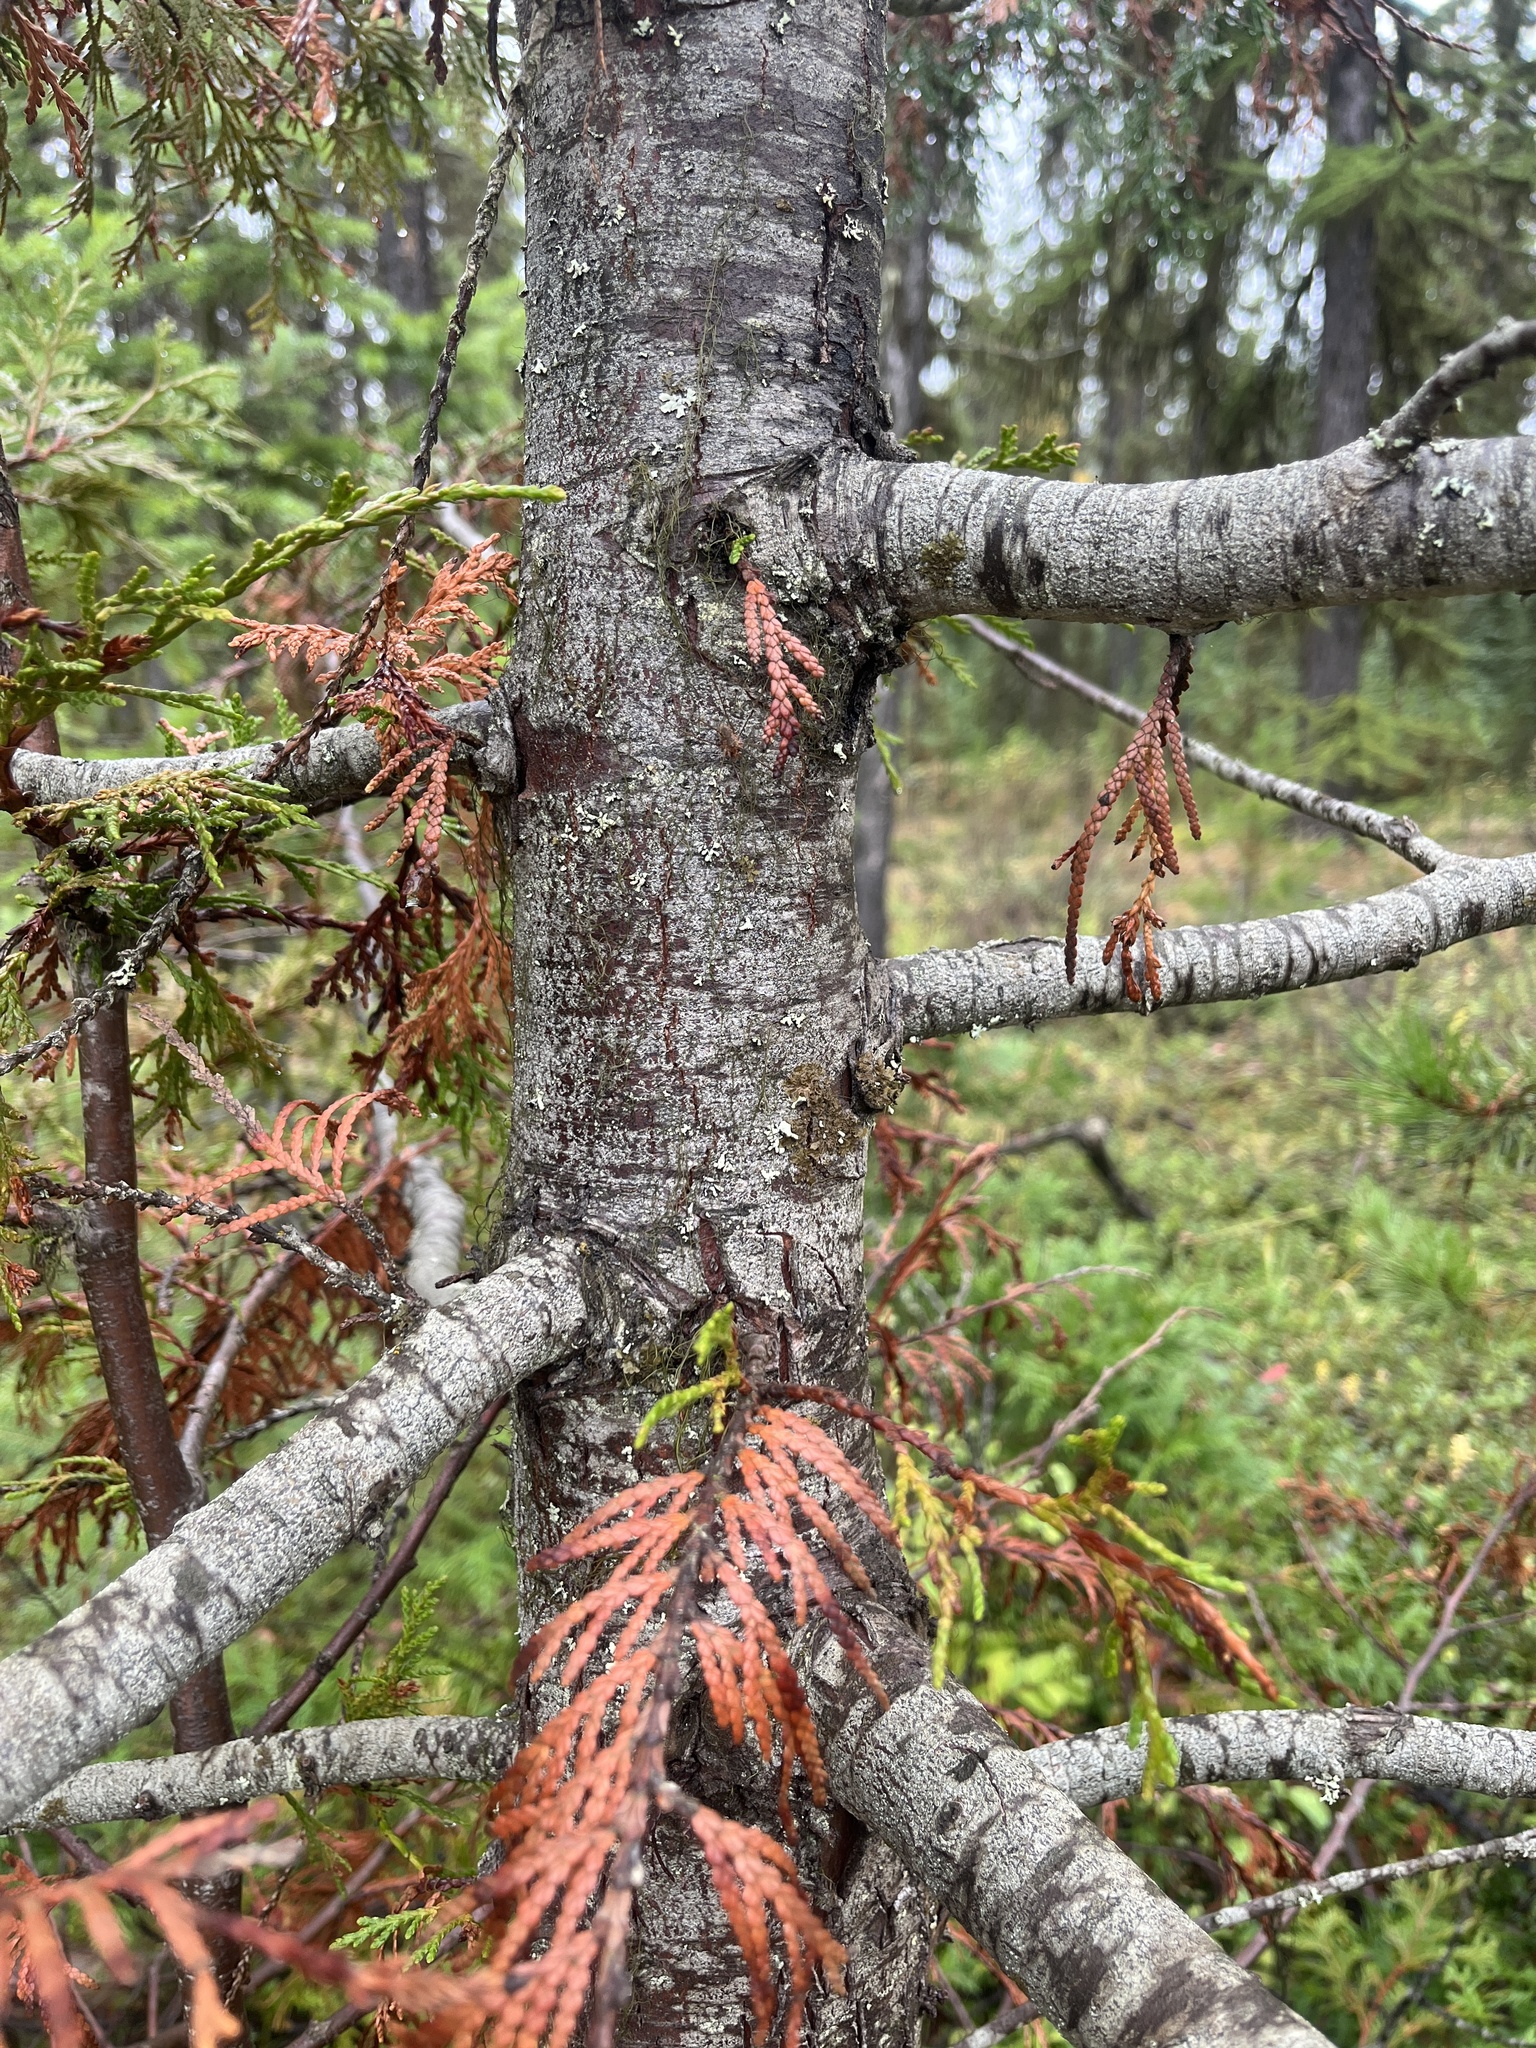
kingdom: Plantae
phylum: Tracheophyta
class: Pinopsida
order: Pinales
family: Cupressaceae
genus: Thuja
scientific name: Thuja plicata
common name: Western red-cedar
